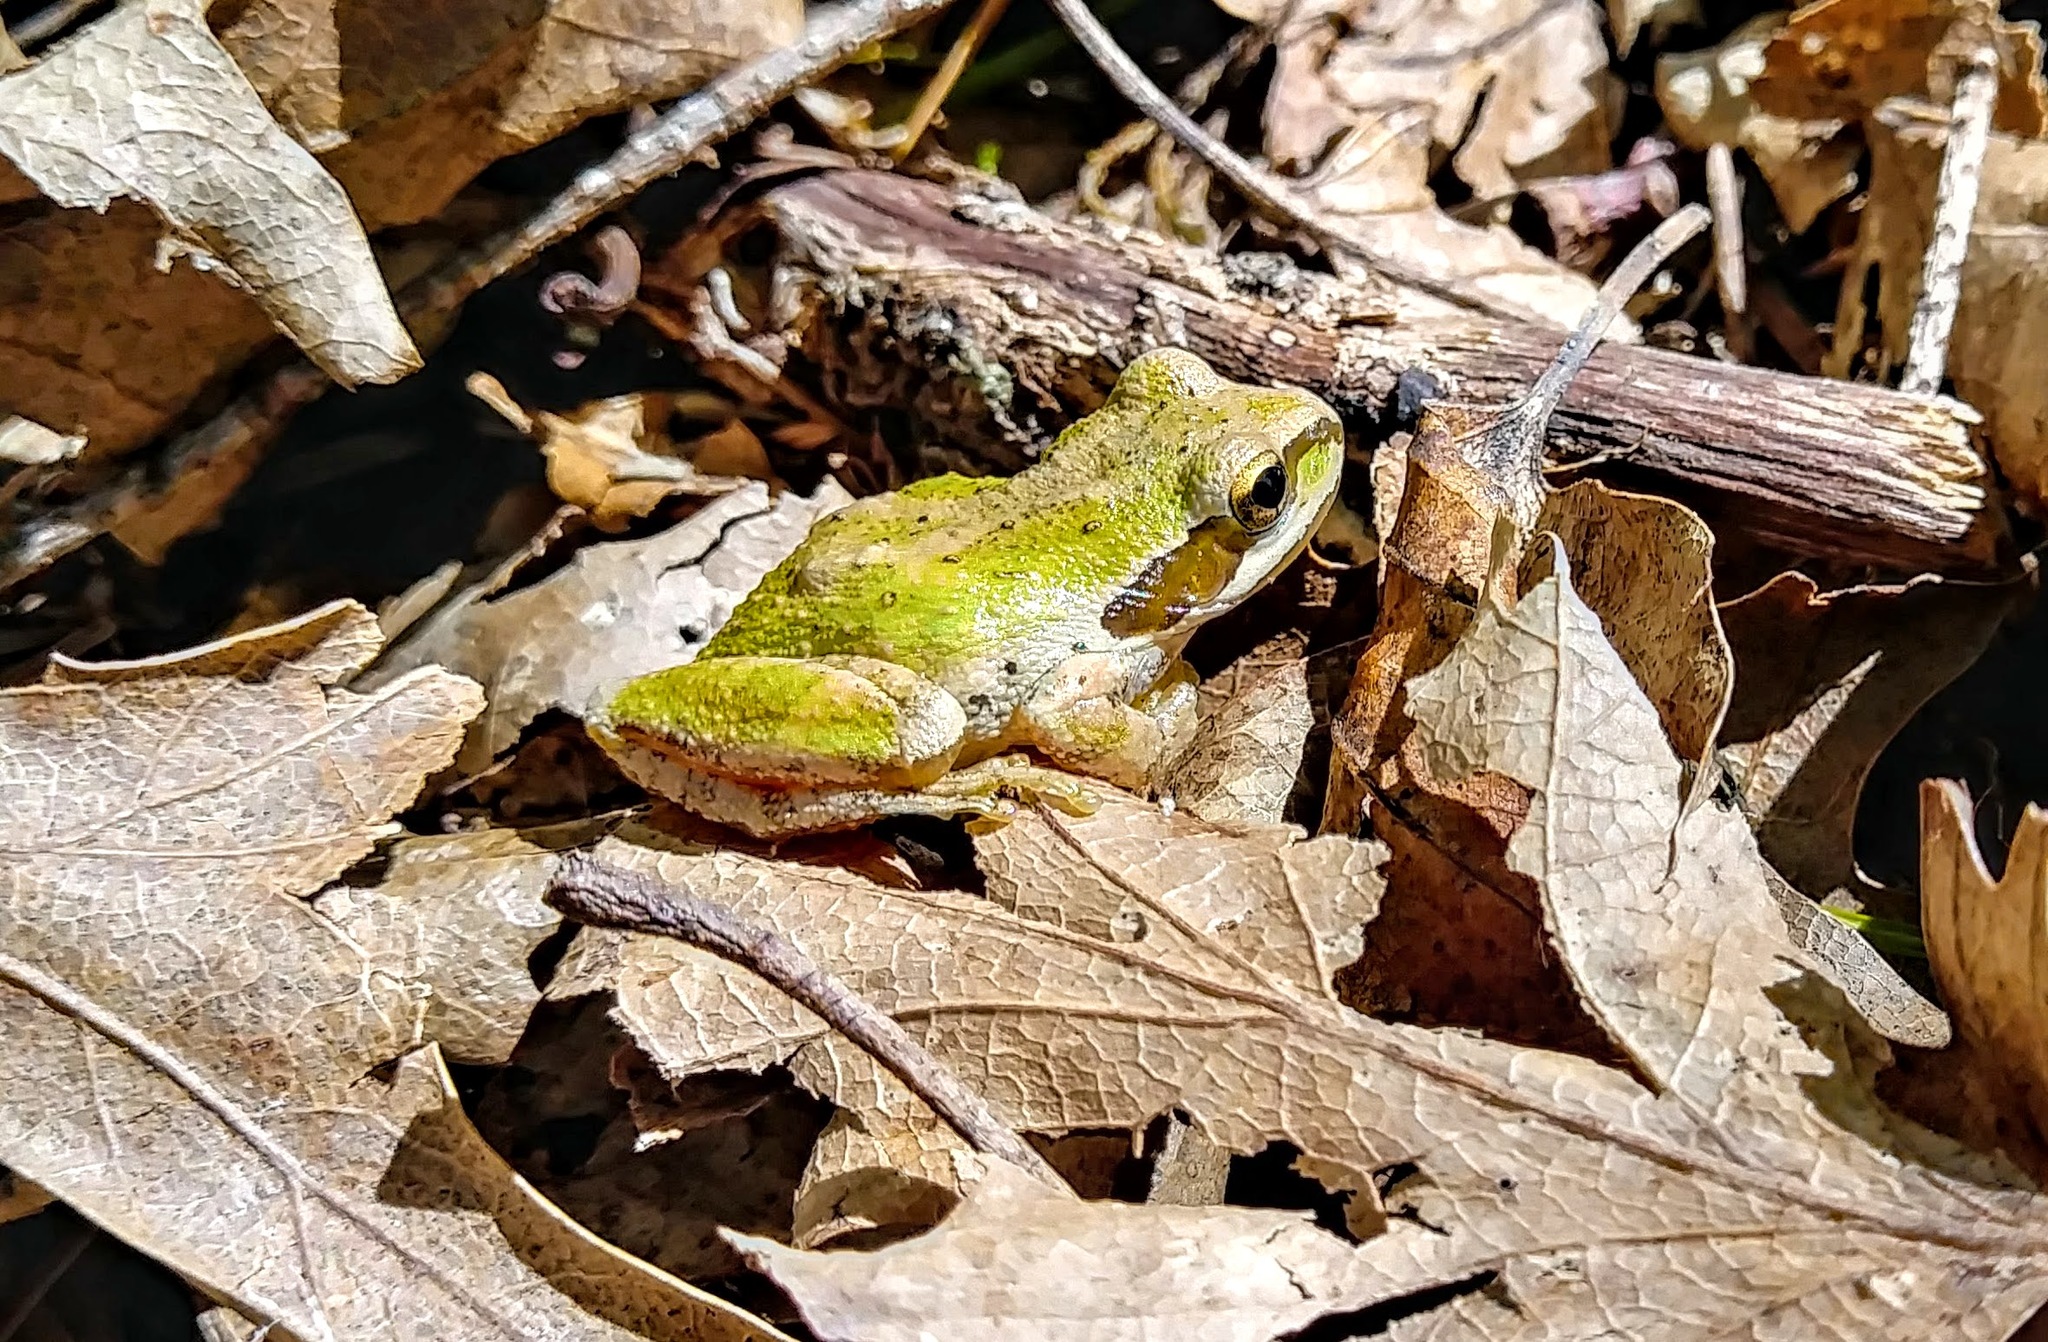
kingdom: Animalia
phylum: Chordata
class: Amphibia
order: Anura
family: Hylidae
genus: Pseudacris
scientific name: Pseudacris regilla
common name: Pacific chorus frog
